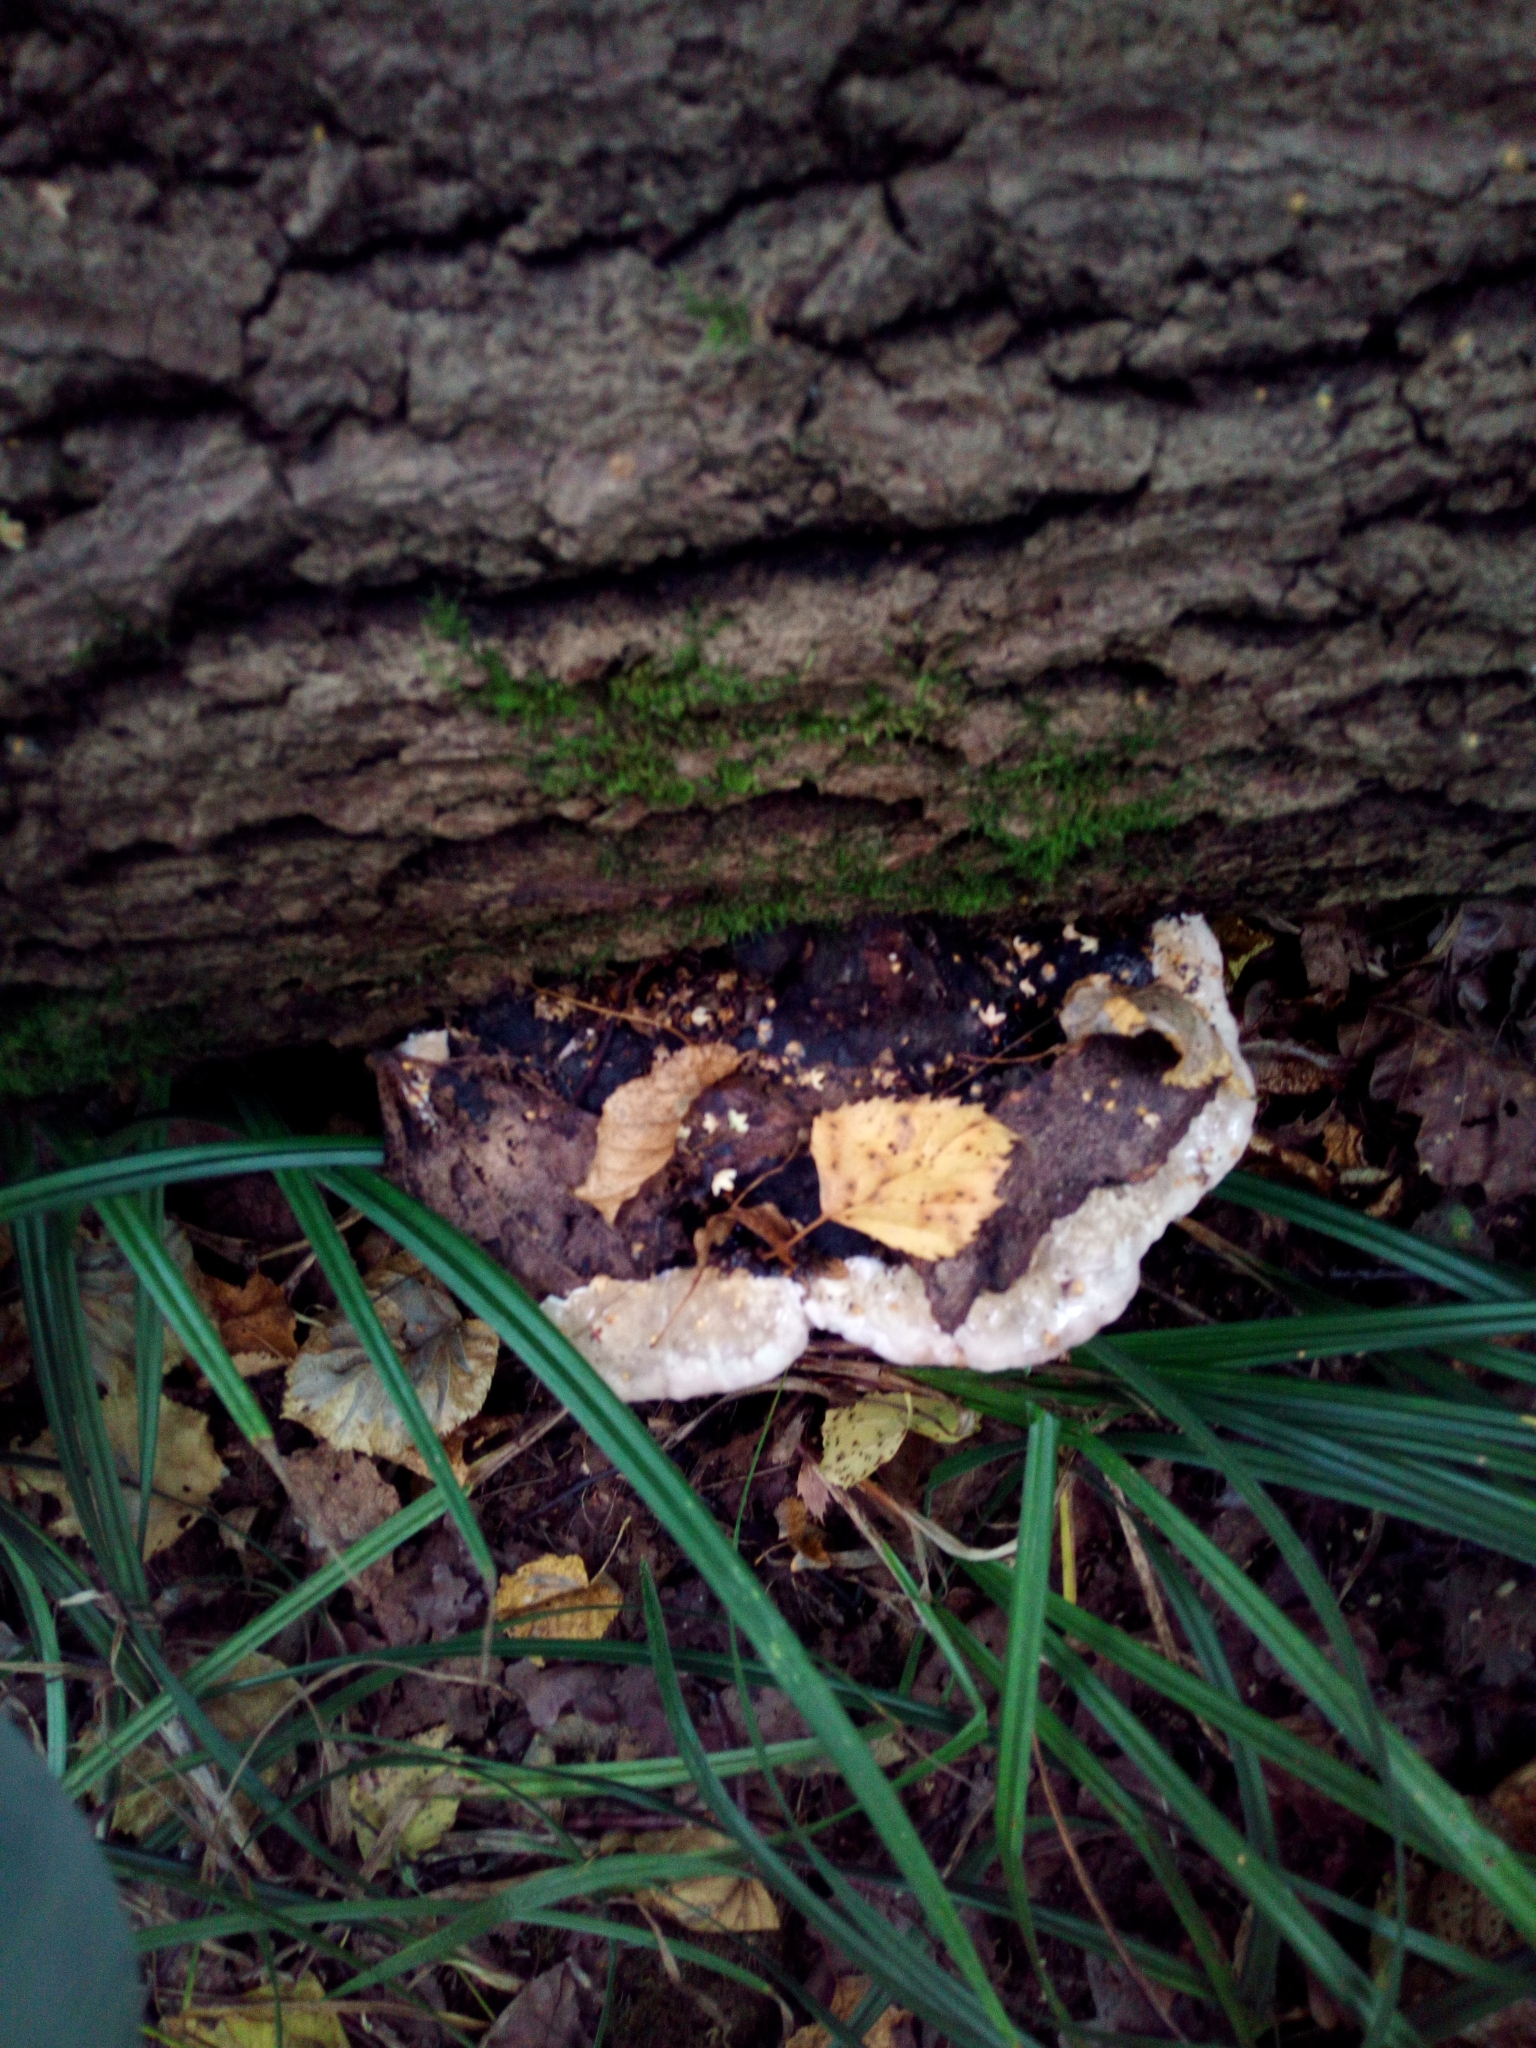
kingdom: Fungi
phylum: Basidiomycota
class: Agaricomycetes
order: Polyporales
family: Fomitopsidaceae
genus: Fomitopsis
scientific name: Fomitopsis pinicola
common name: Red-belted bracket
